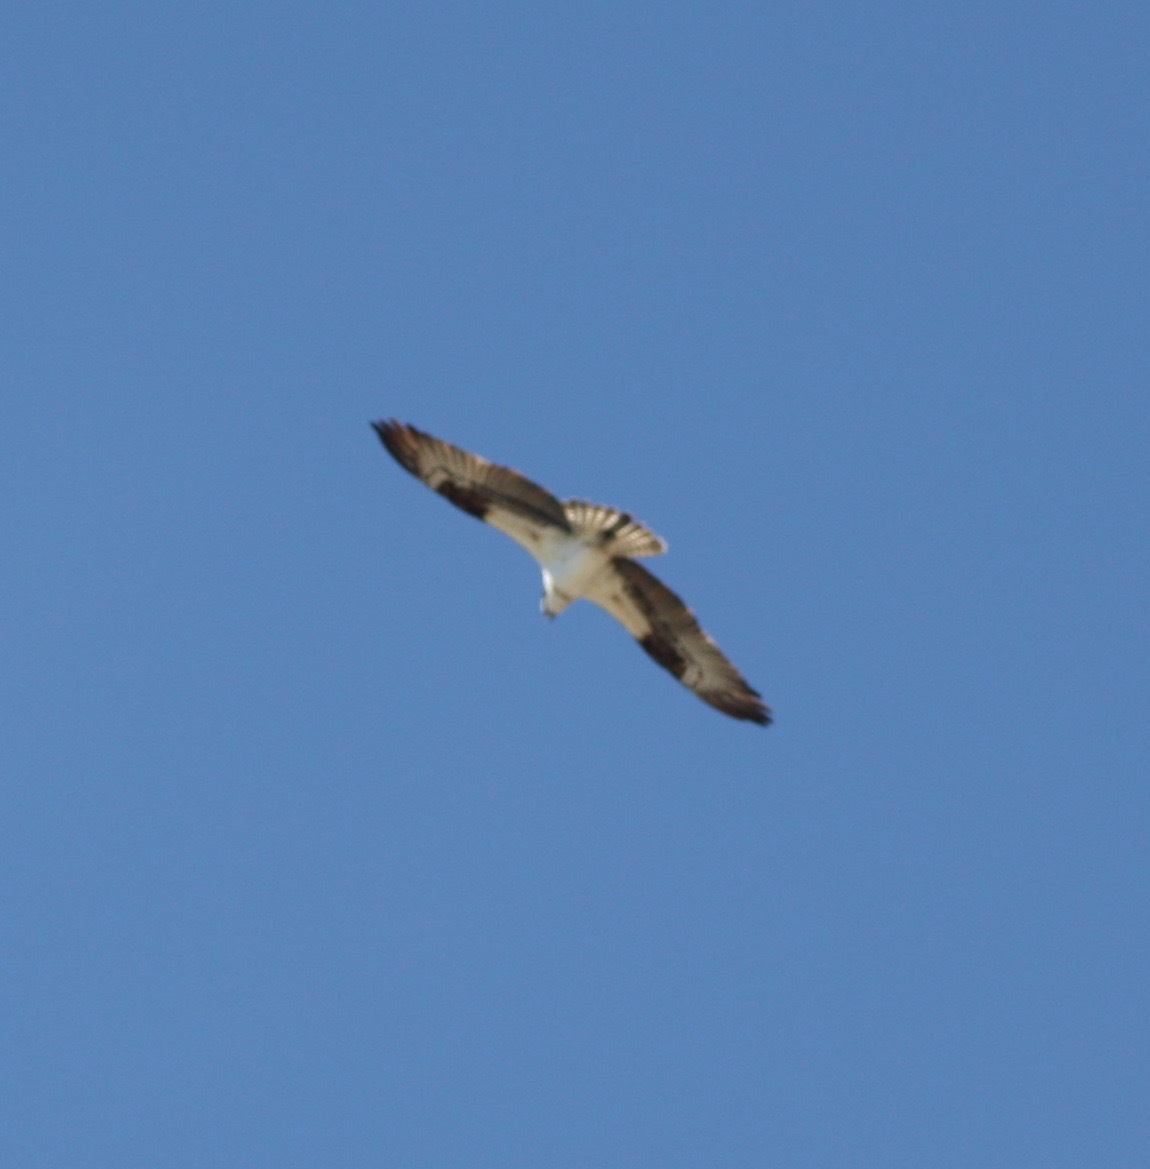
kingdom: Animalia
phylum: Chordata
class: Aves
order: Accipitriformes
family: Pandionidae
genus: Pandion
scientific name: Pandion haliaetus
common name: Osprey
